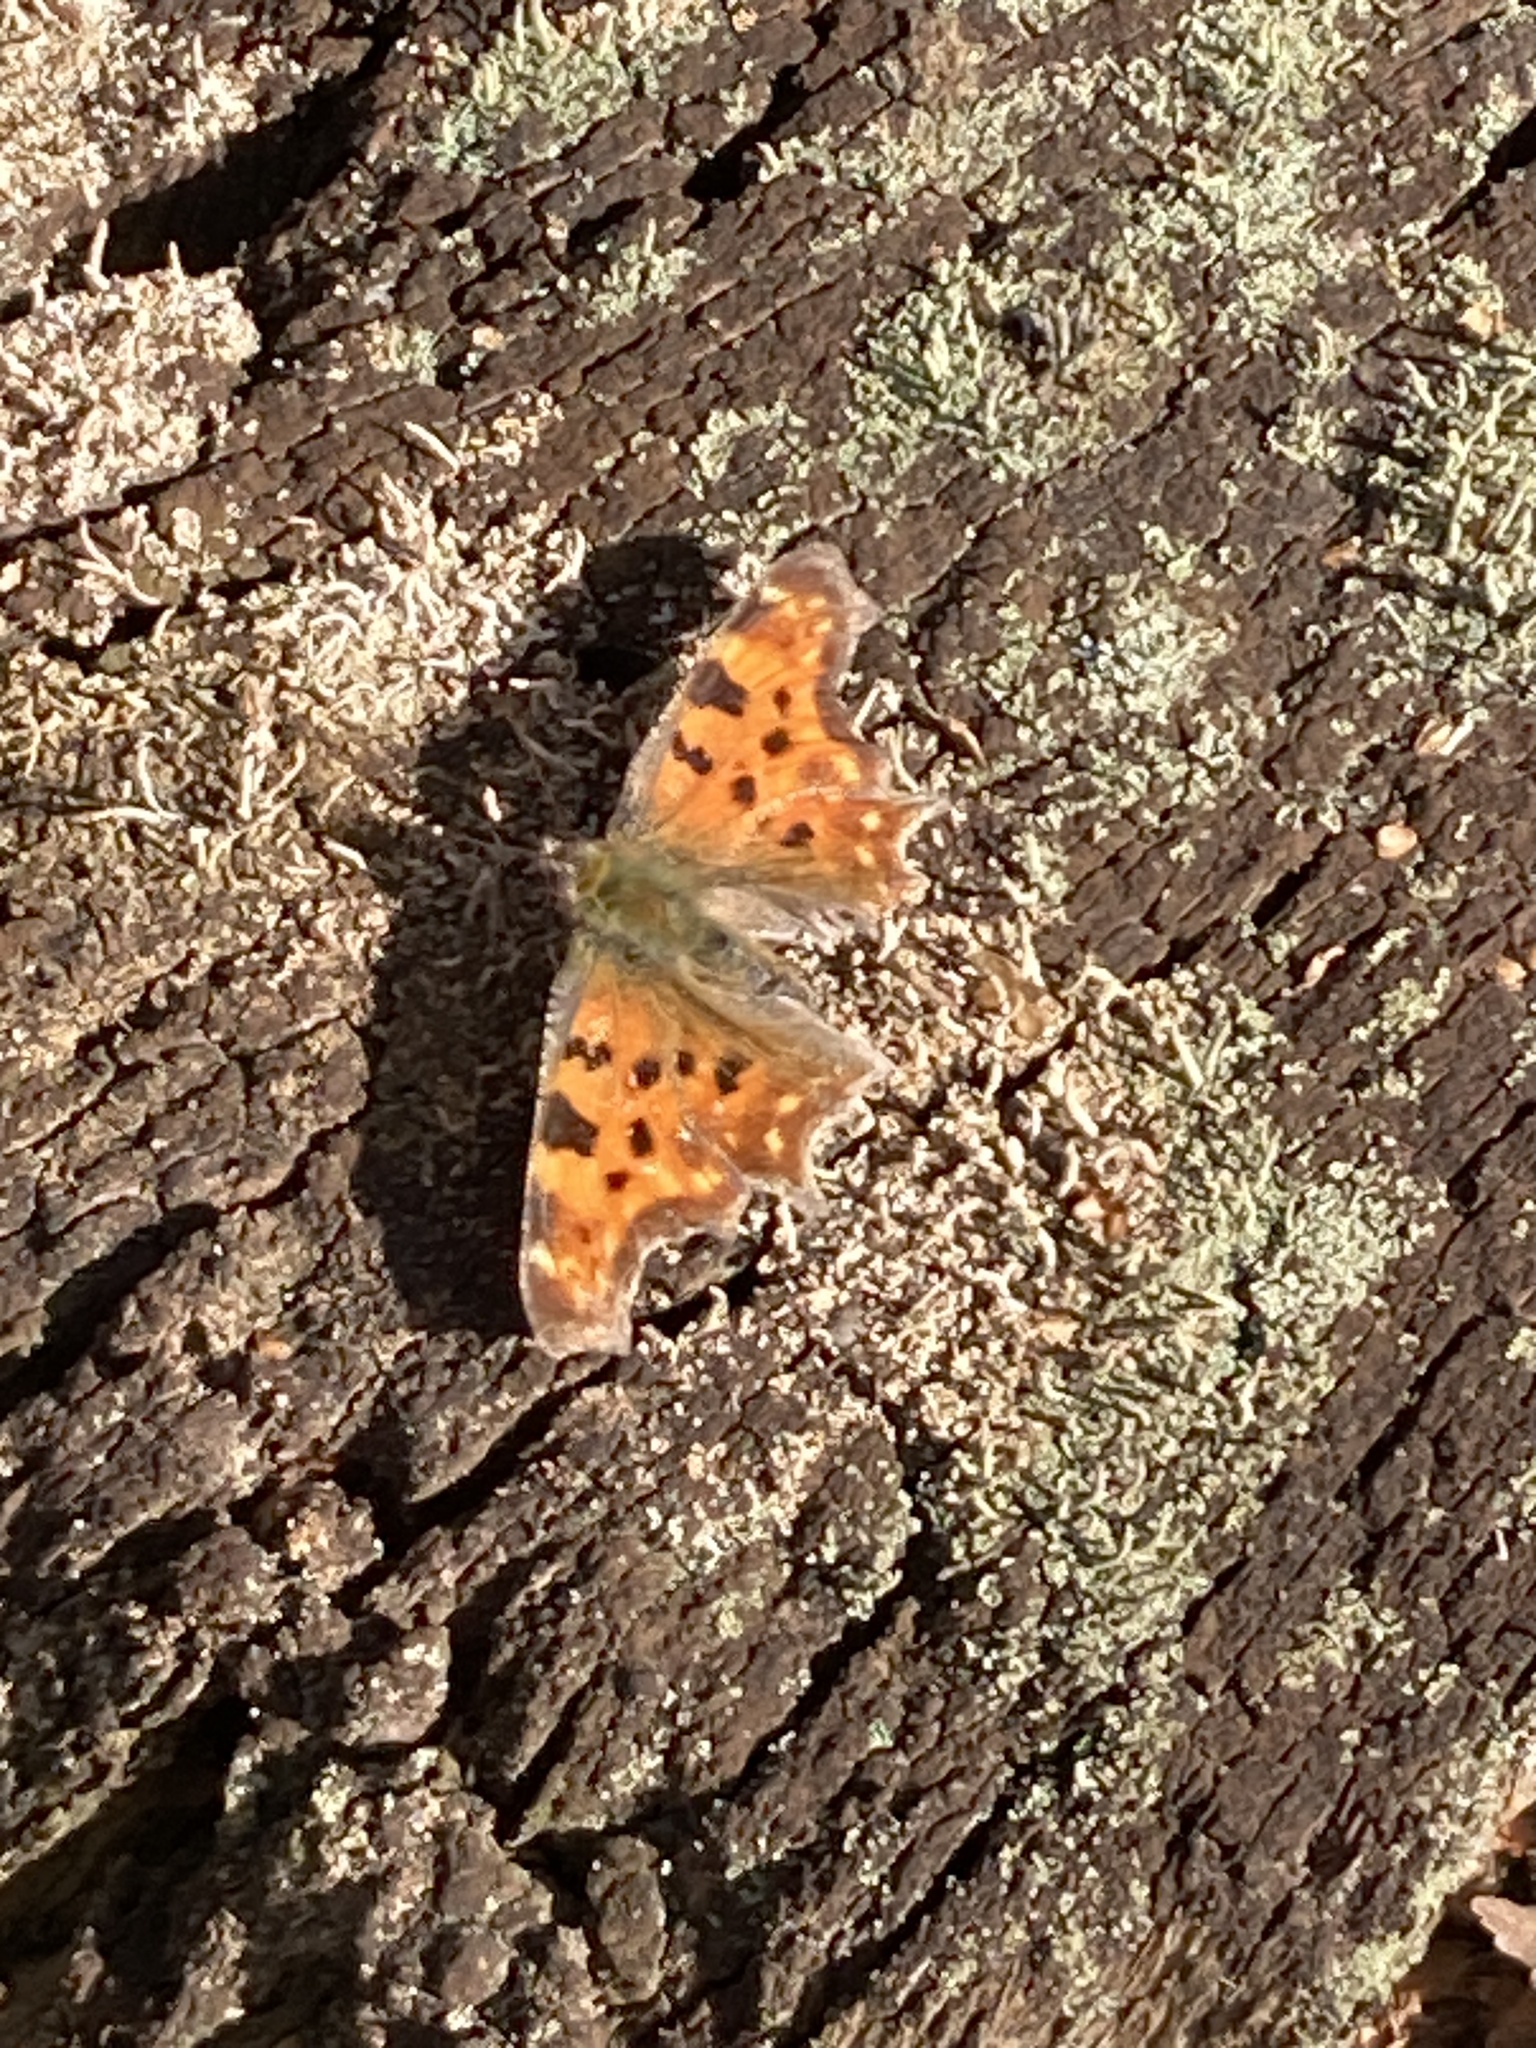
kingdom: Animalia
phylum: Arthropoda
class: Insecta
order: Lepidoptera
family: Nymphalidae
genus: Polygonia
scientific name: Polygonia c-album
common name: Comma
